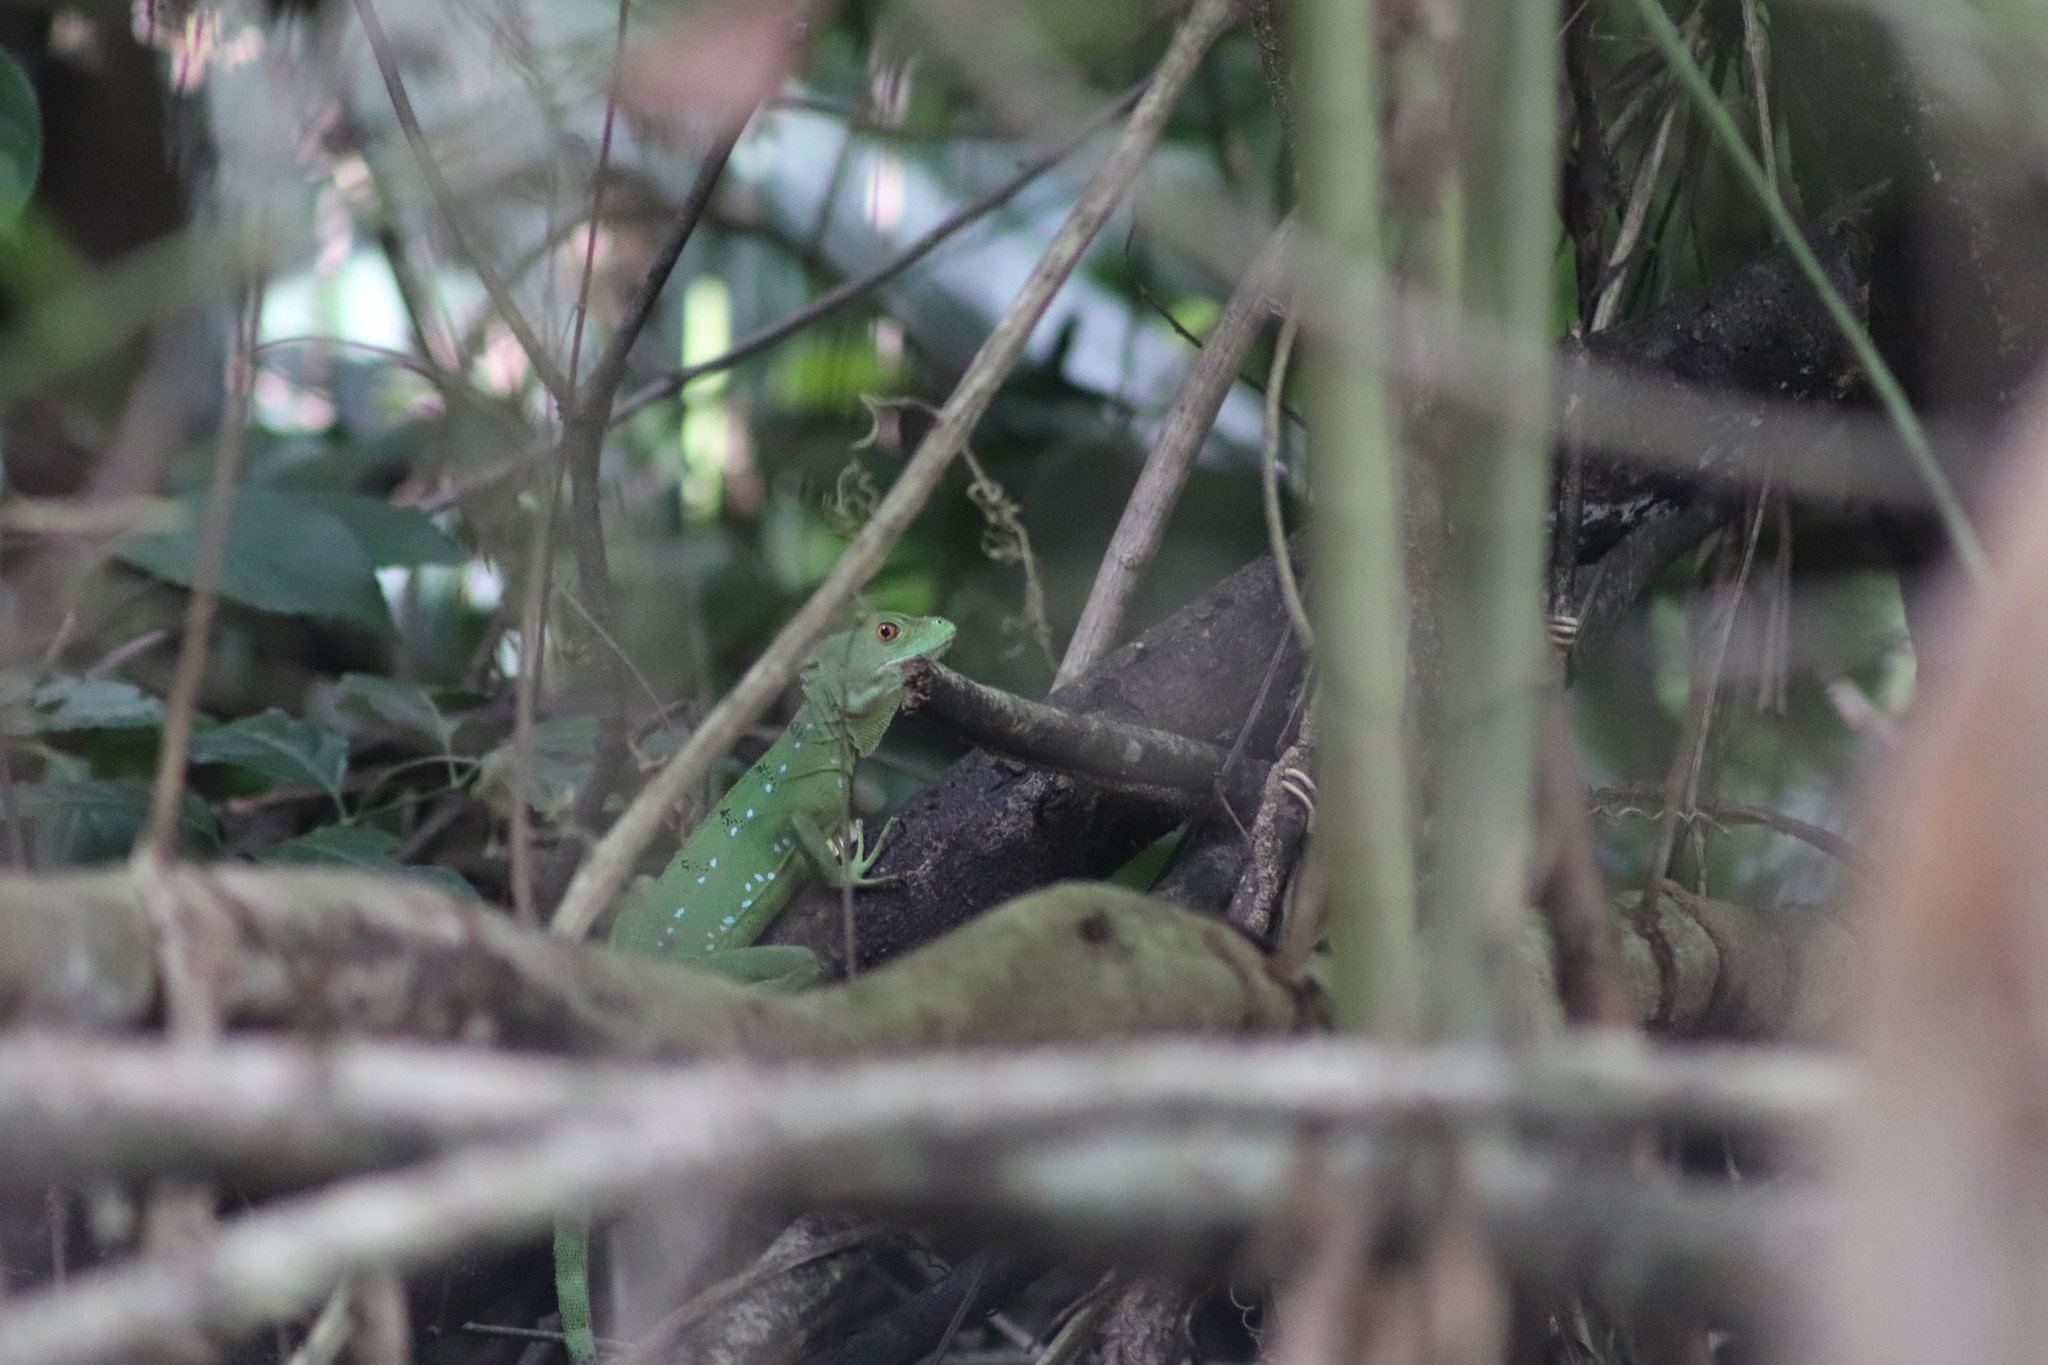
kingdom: Animalia
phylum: Chordata
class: Squamata
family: Corytophanidae
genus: Basiliscus
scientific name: Basiliscus plumifrons
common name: Green basilisk
